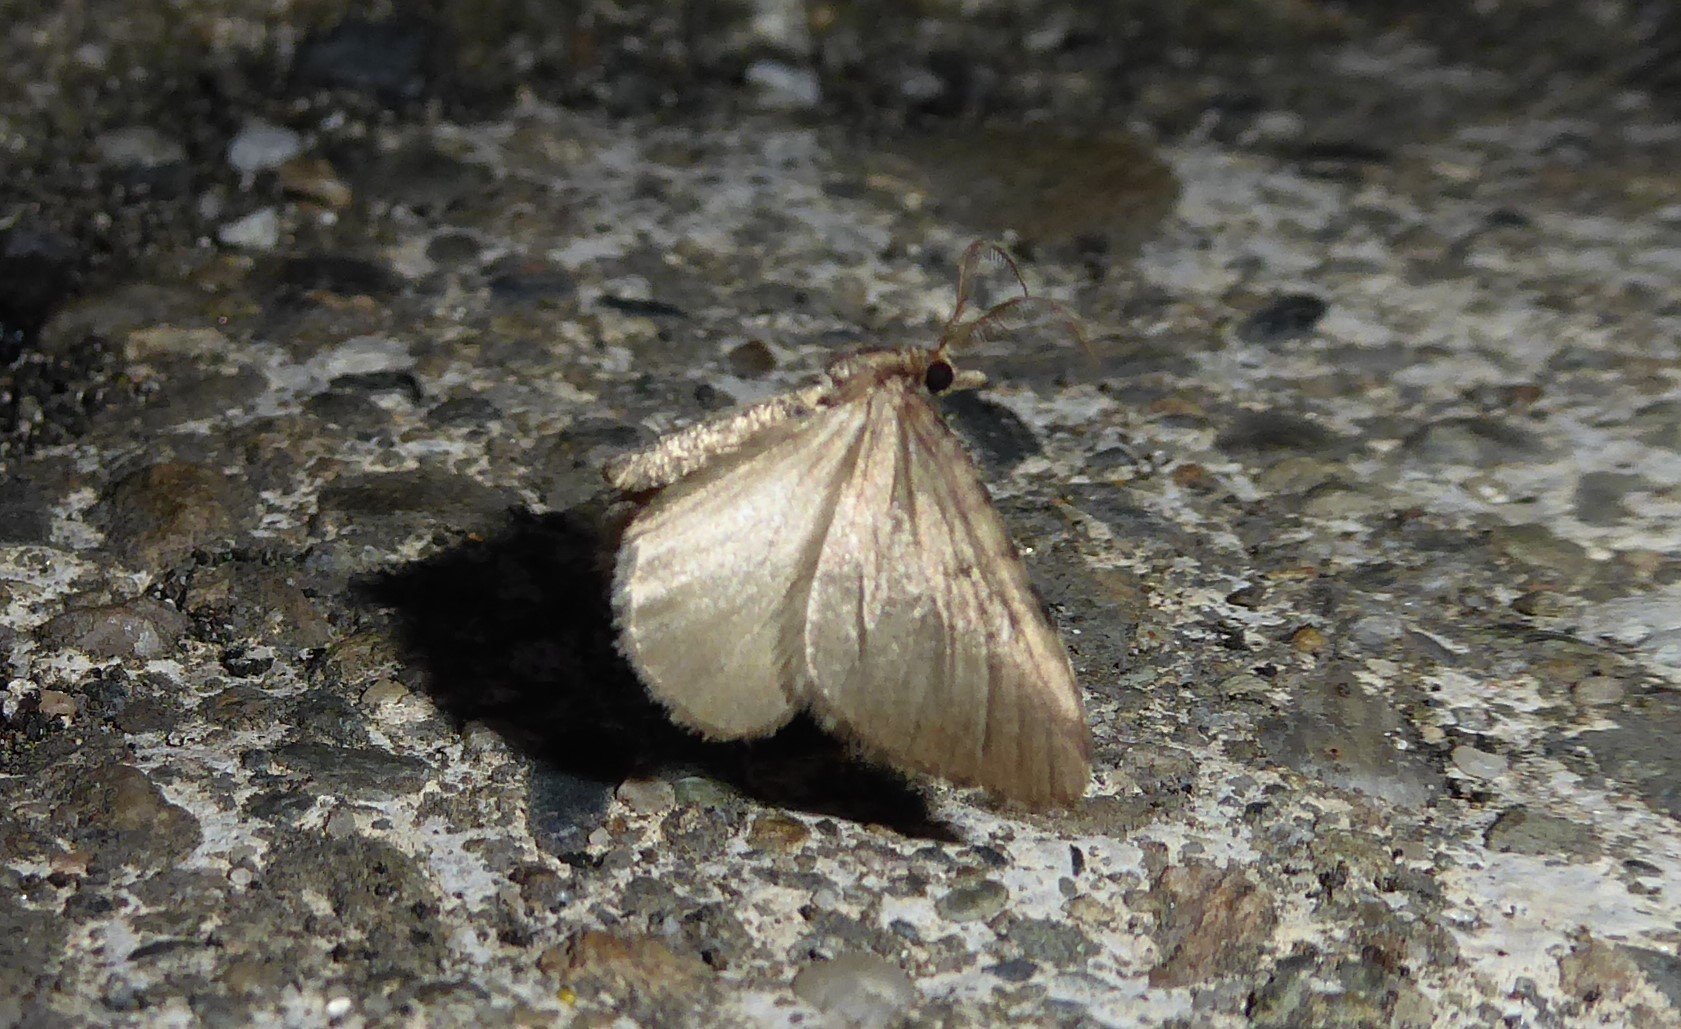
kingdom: Animalia
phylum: Arthropoda
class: Insecta
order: Lepidoptera
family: Geometridae
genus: Asaphodes
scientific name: Asaphodes aegrota
